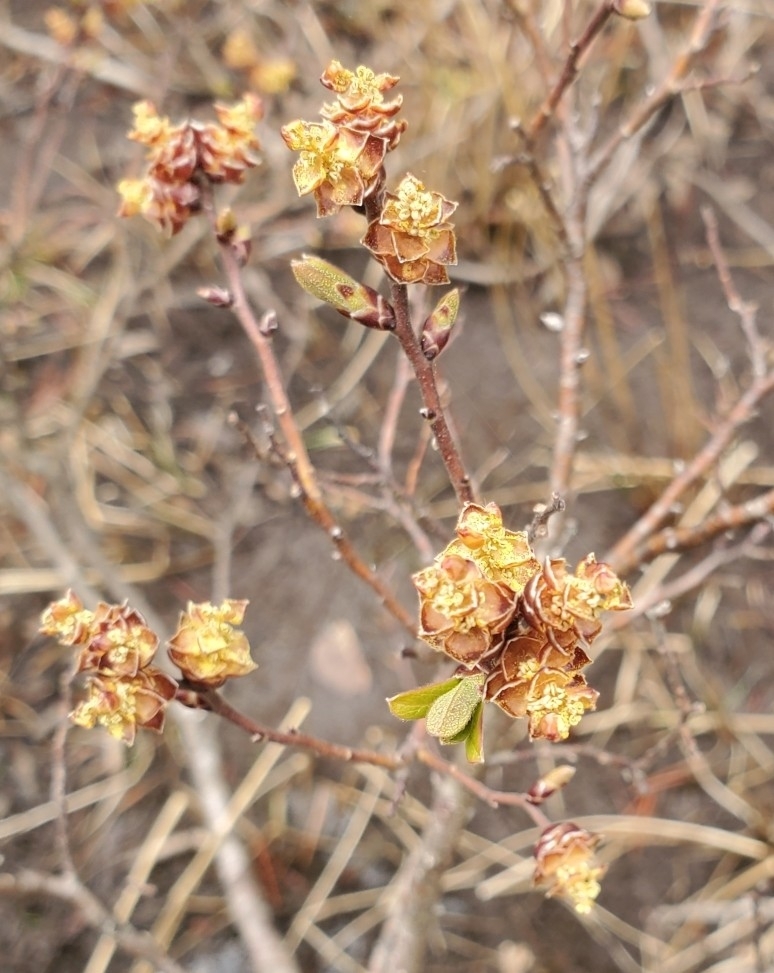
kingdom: Plantae
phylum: Tracheophyta
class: Magnoliopsida
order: Fagales
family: Myricaceae
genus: Myrica
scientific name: Myrica gale
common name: Sweet gale
